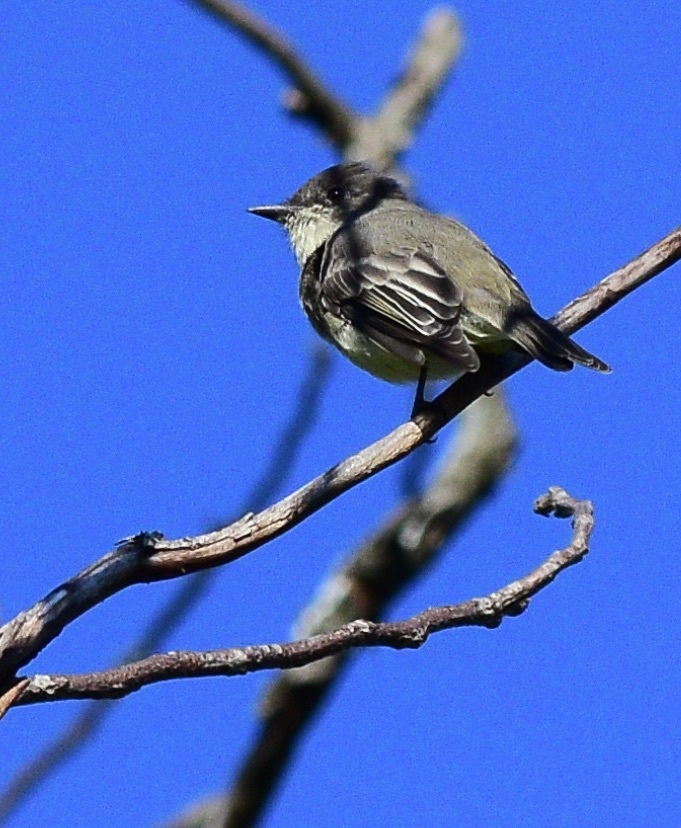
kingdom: Animalia
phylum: Chordata
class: Aves
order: Passeriformes
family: Tyrannidae
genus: Sayornis
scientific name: Sayornis phoebe
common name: Eastern phoebe
